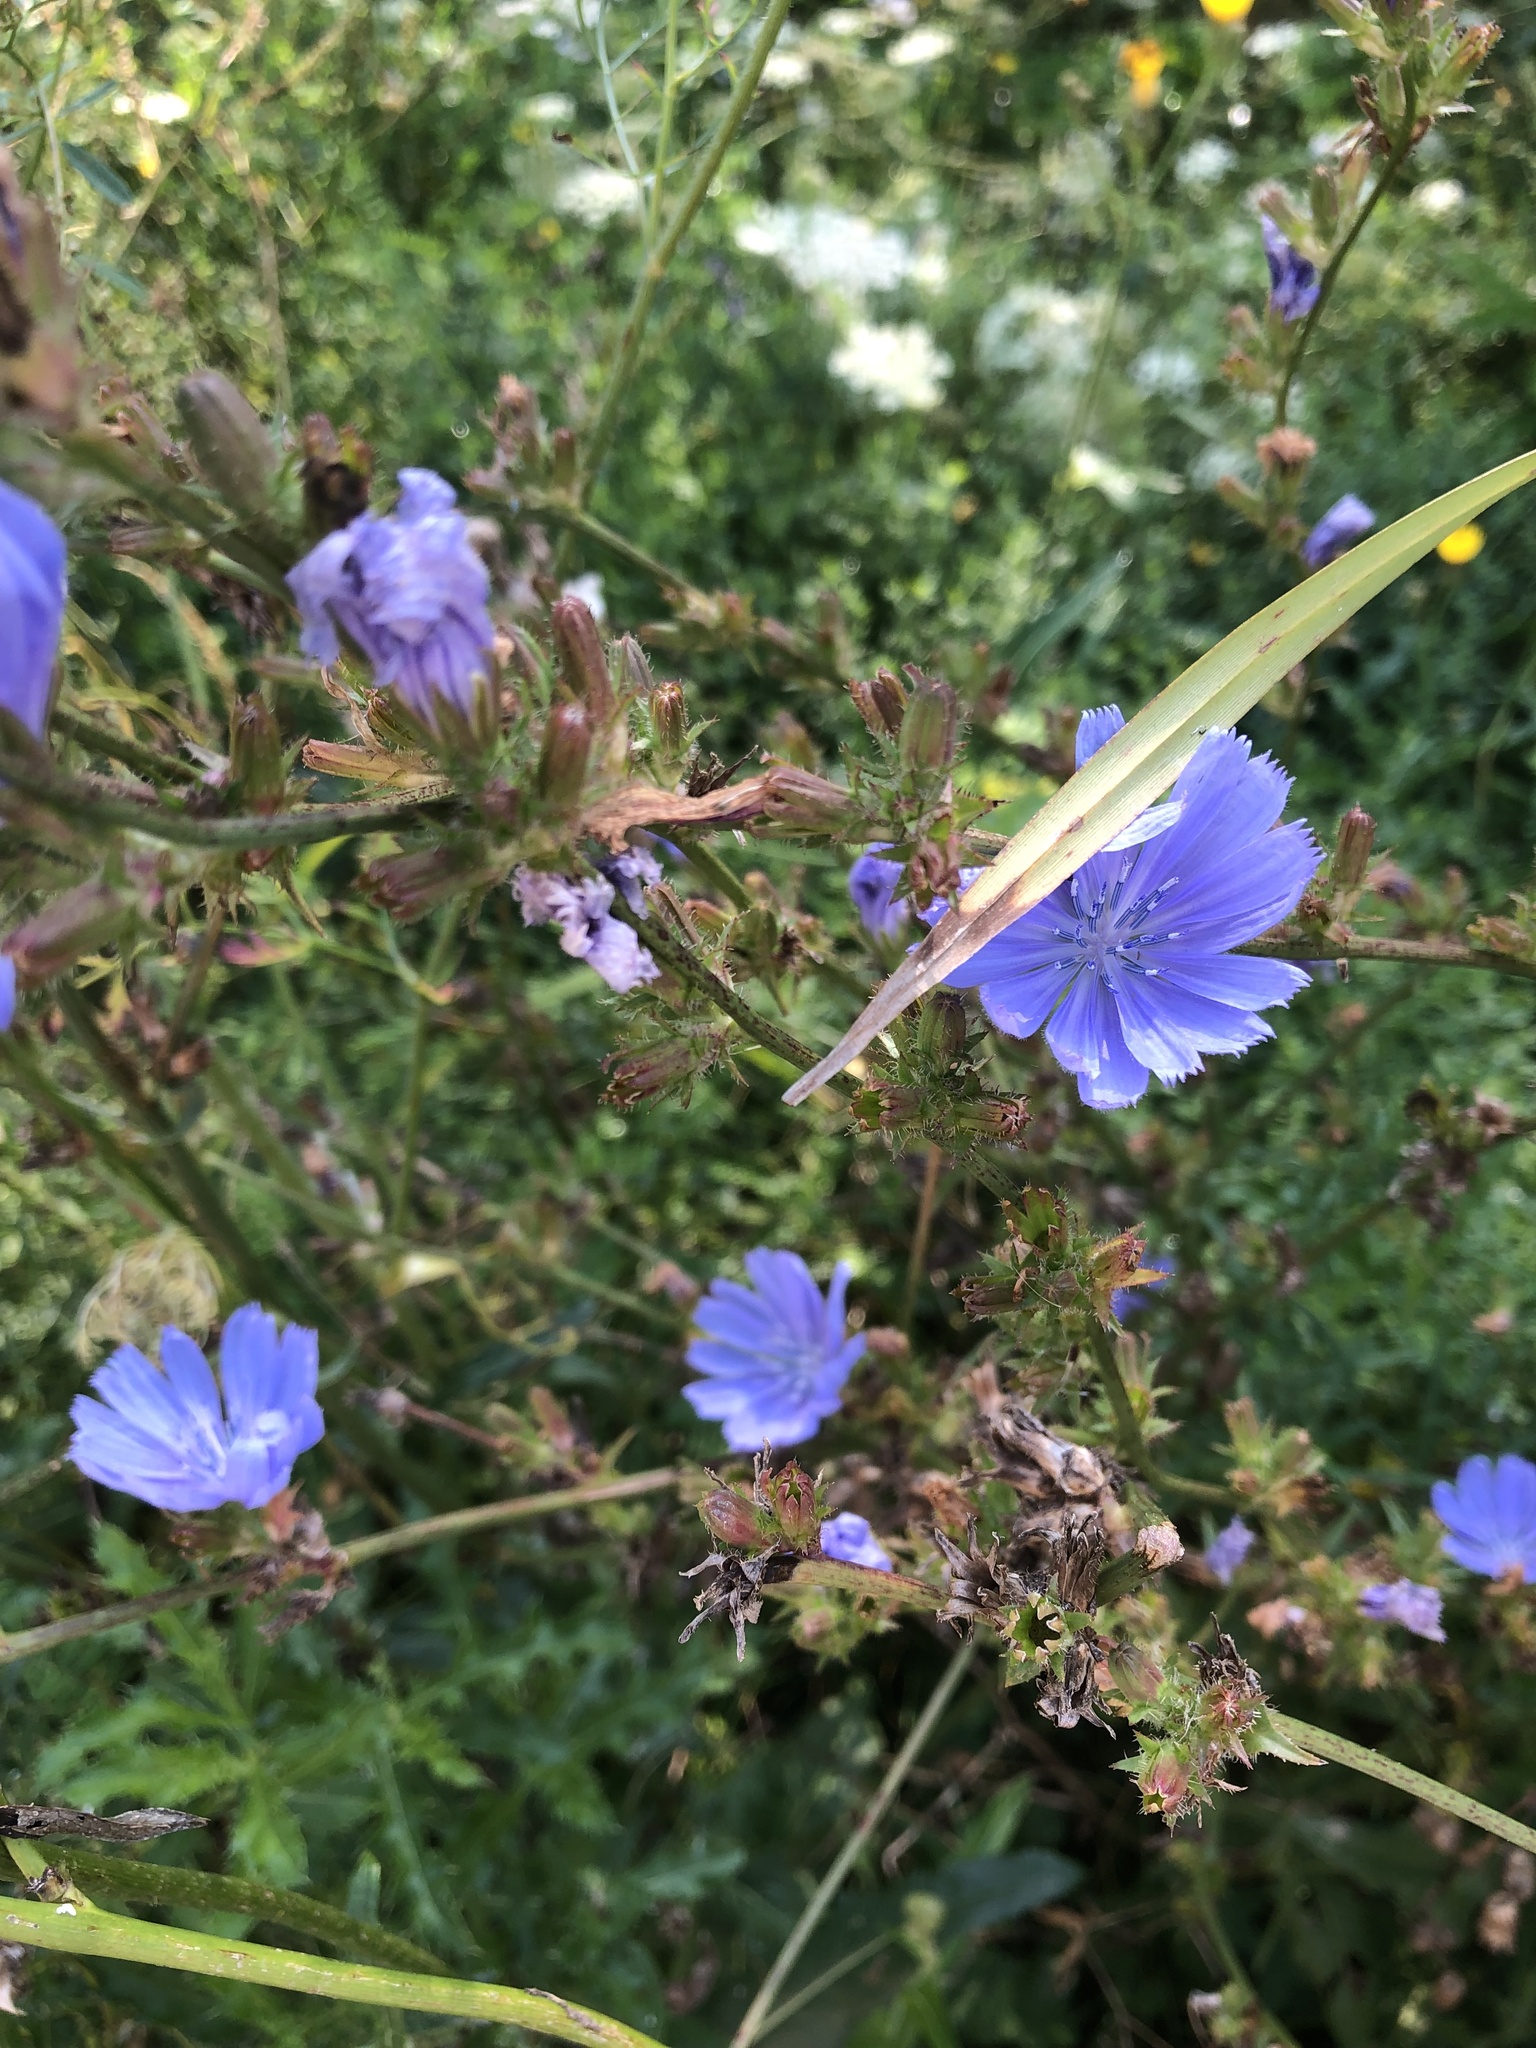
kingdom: Plantae
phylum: Tracheophyta
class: Magnoliopsida
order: Asterales
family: Asteraceae
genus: Cichorium
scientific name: Cichorium intybus
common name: Chicory
